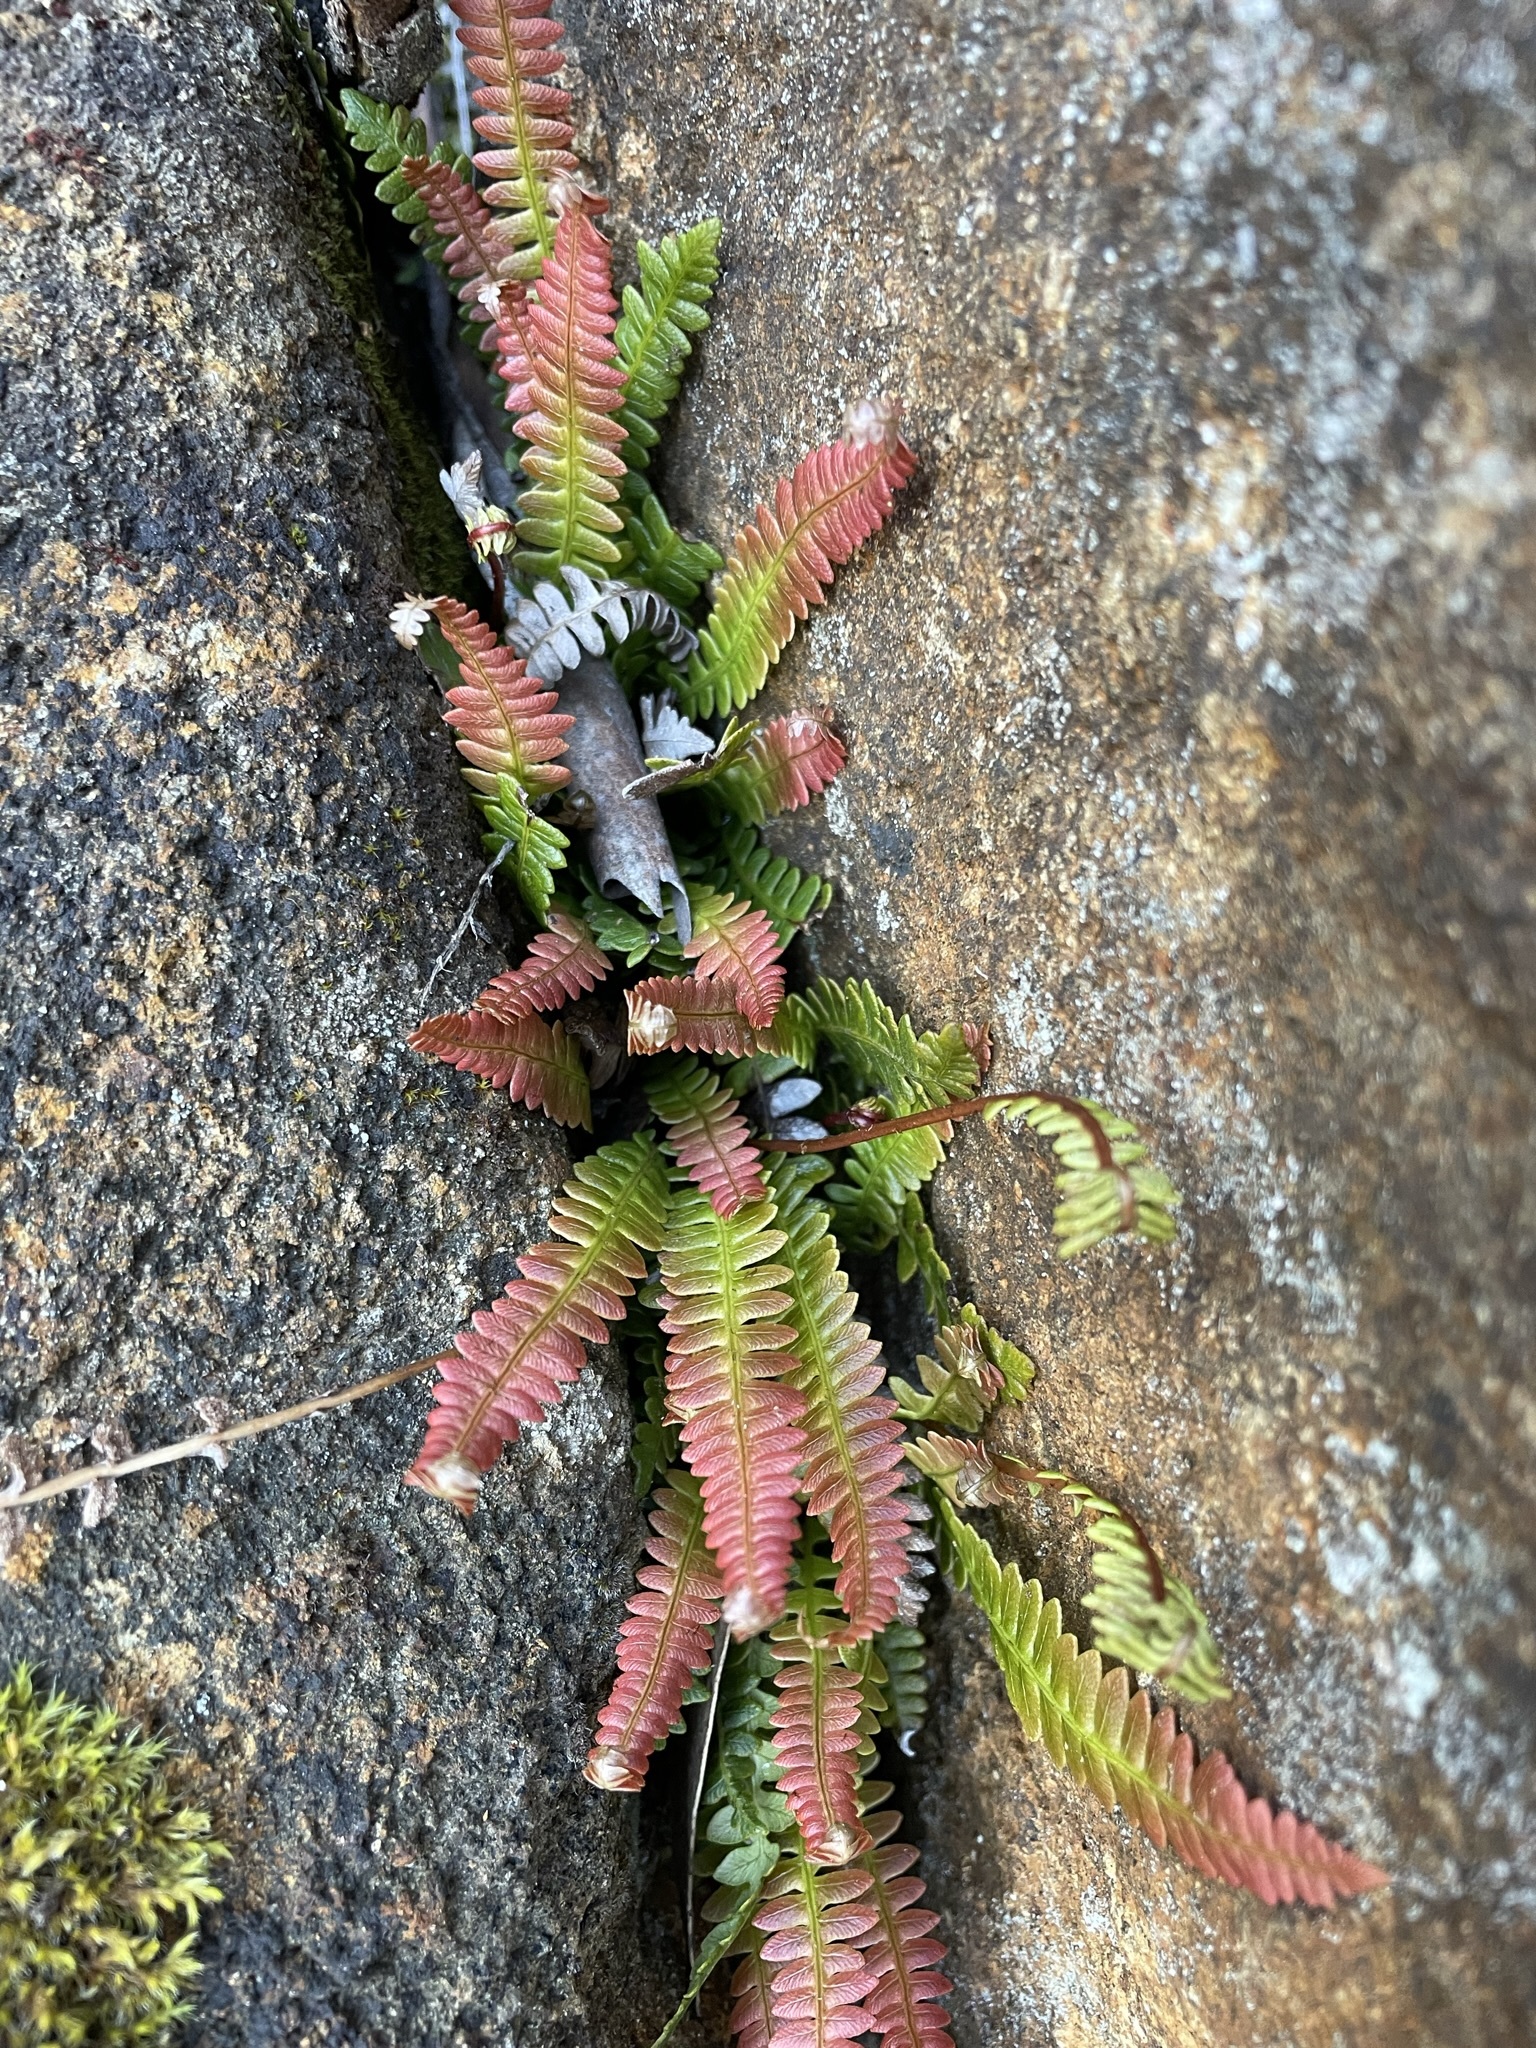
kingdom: Plantae
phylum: Tracheophyta
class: Polypodiopsida
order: Polypodiales
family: Blechnaceae
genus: Austroblechnum
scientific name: Austroblechnum penna-marina
